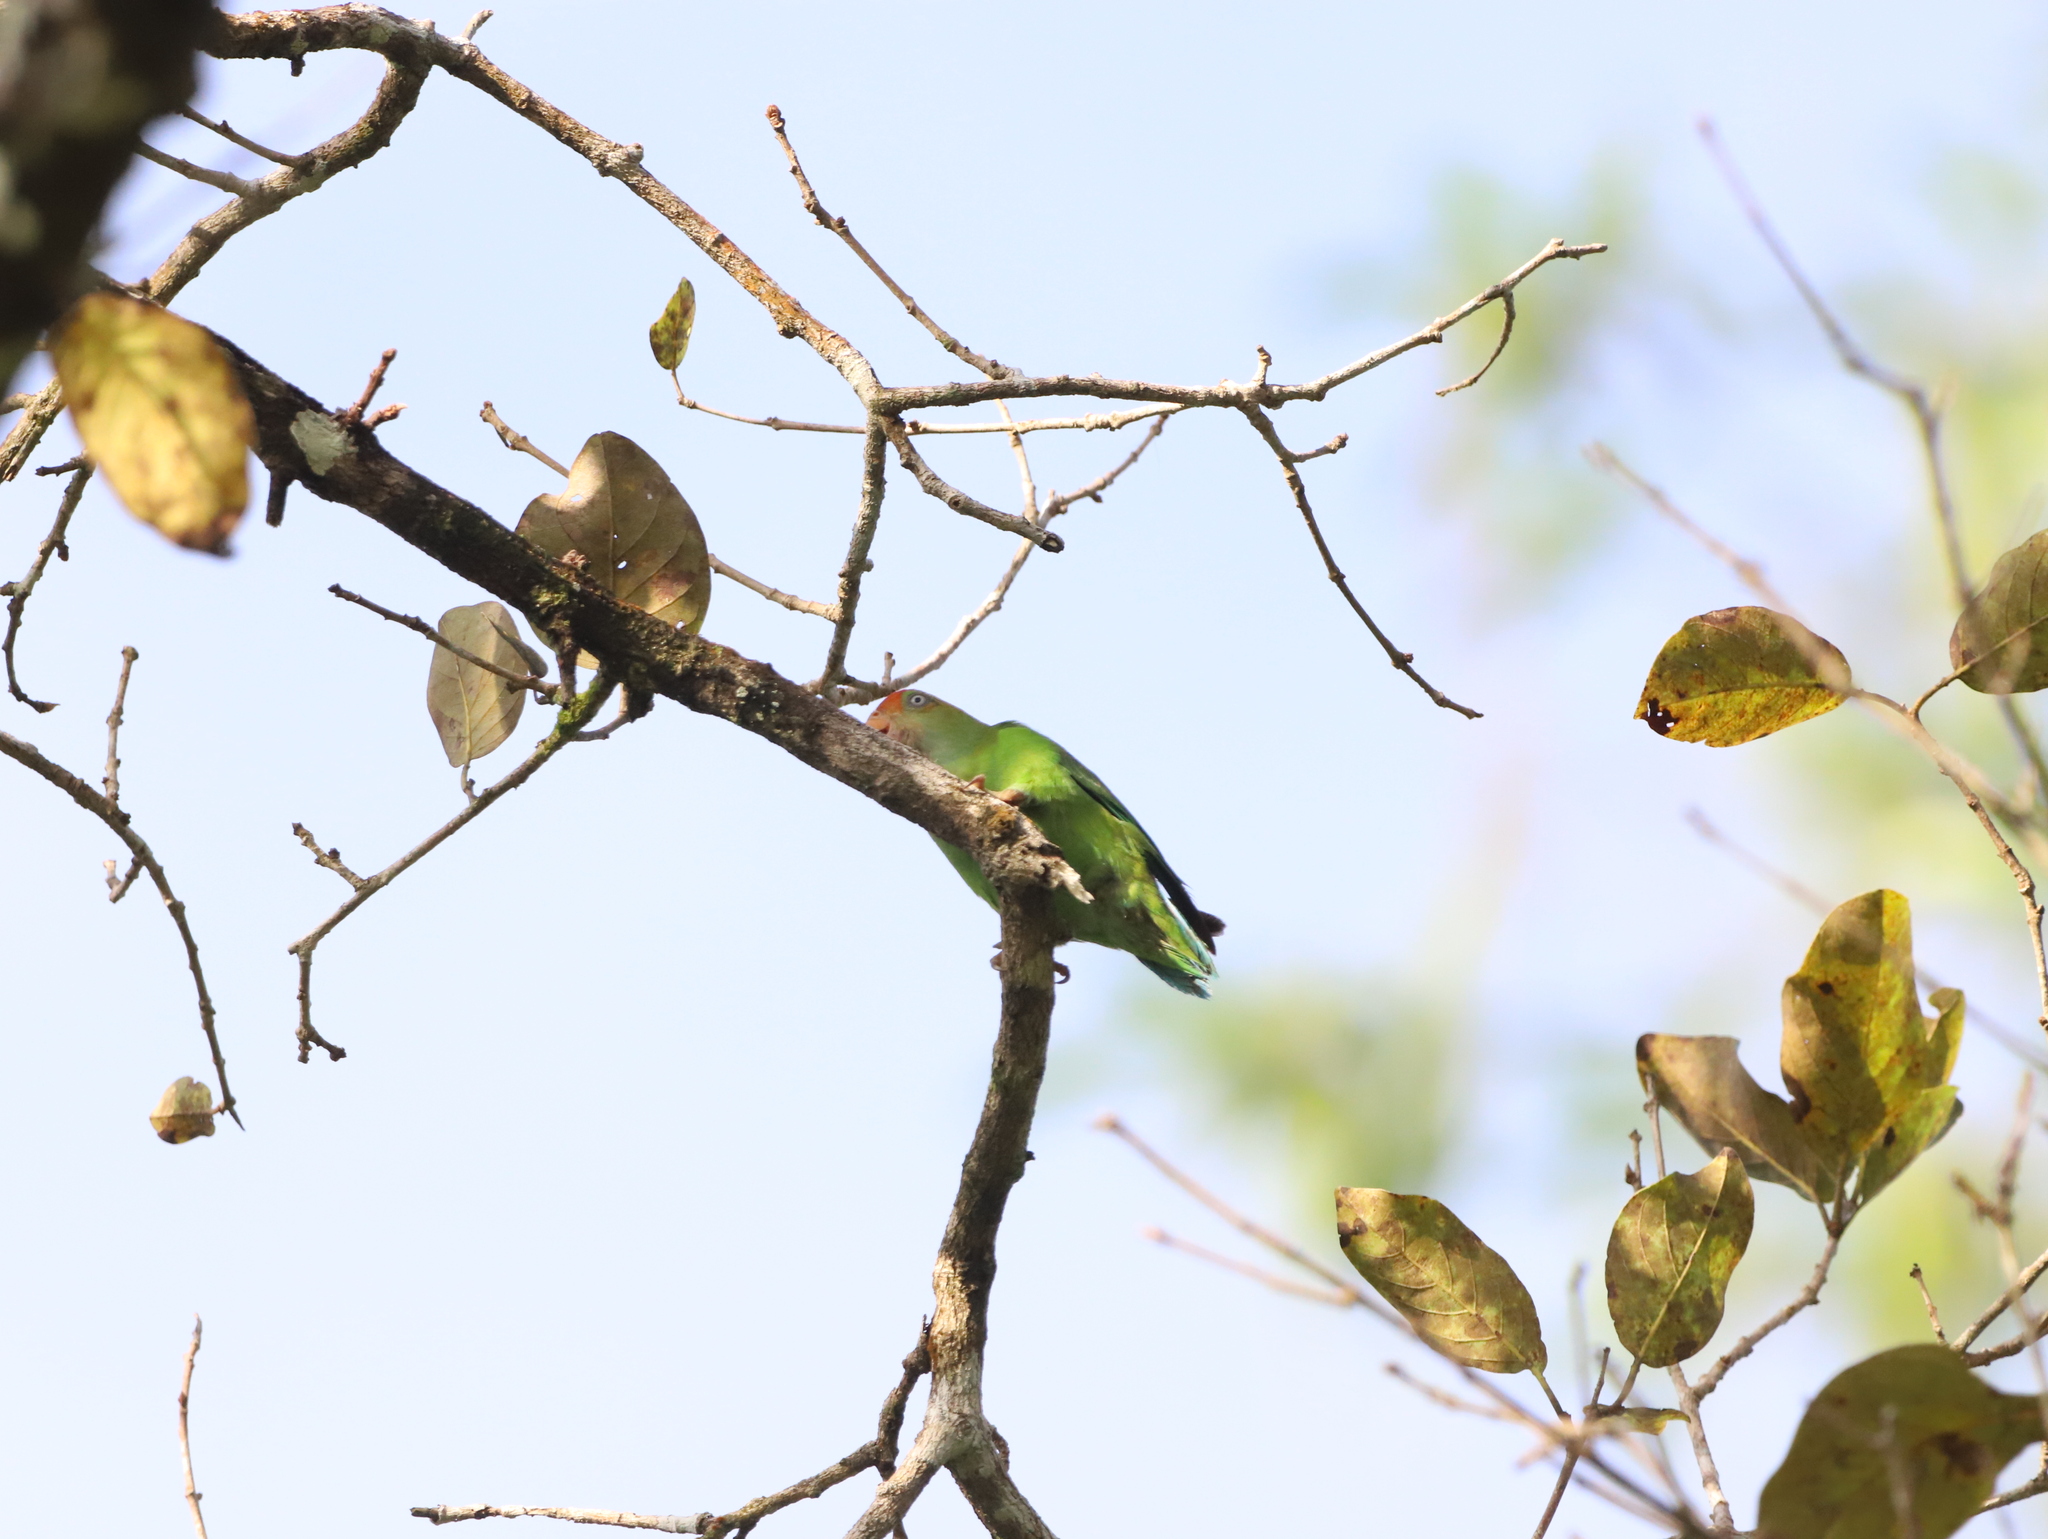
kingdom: Animalia
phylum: Chordata
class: Aves
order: Psittaciformes
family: Psittacidae
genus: Loriculus
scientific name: Loriculus beryllinus
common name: Sri lanka hanging parrot
